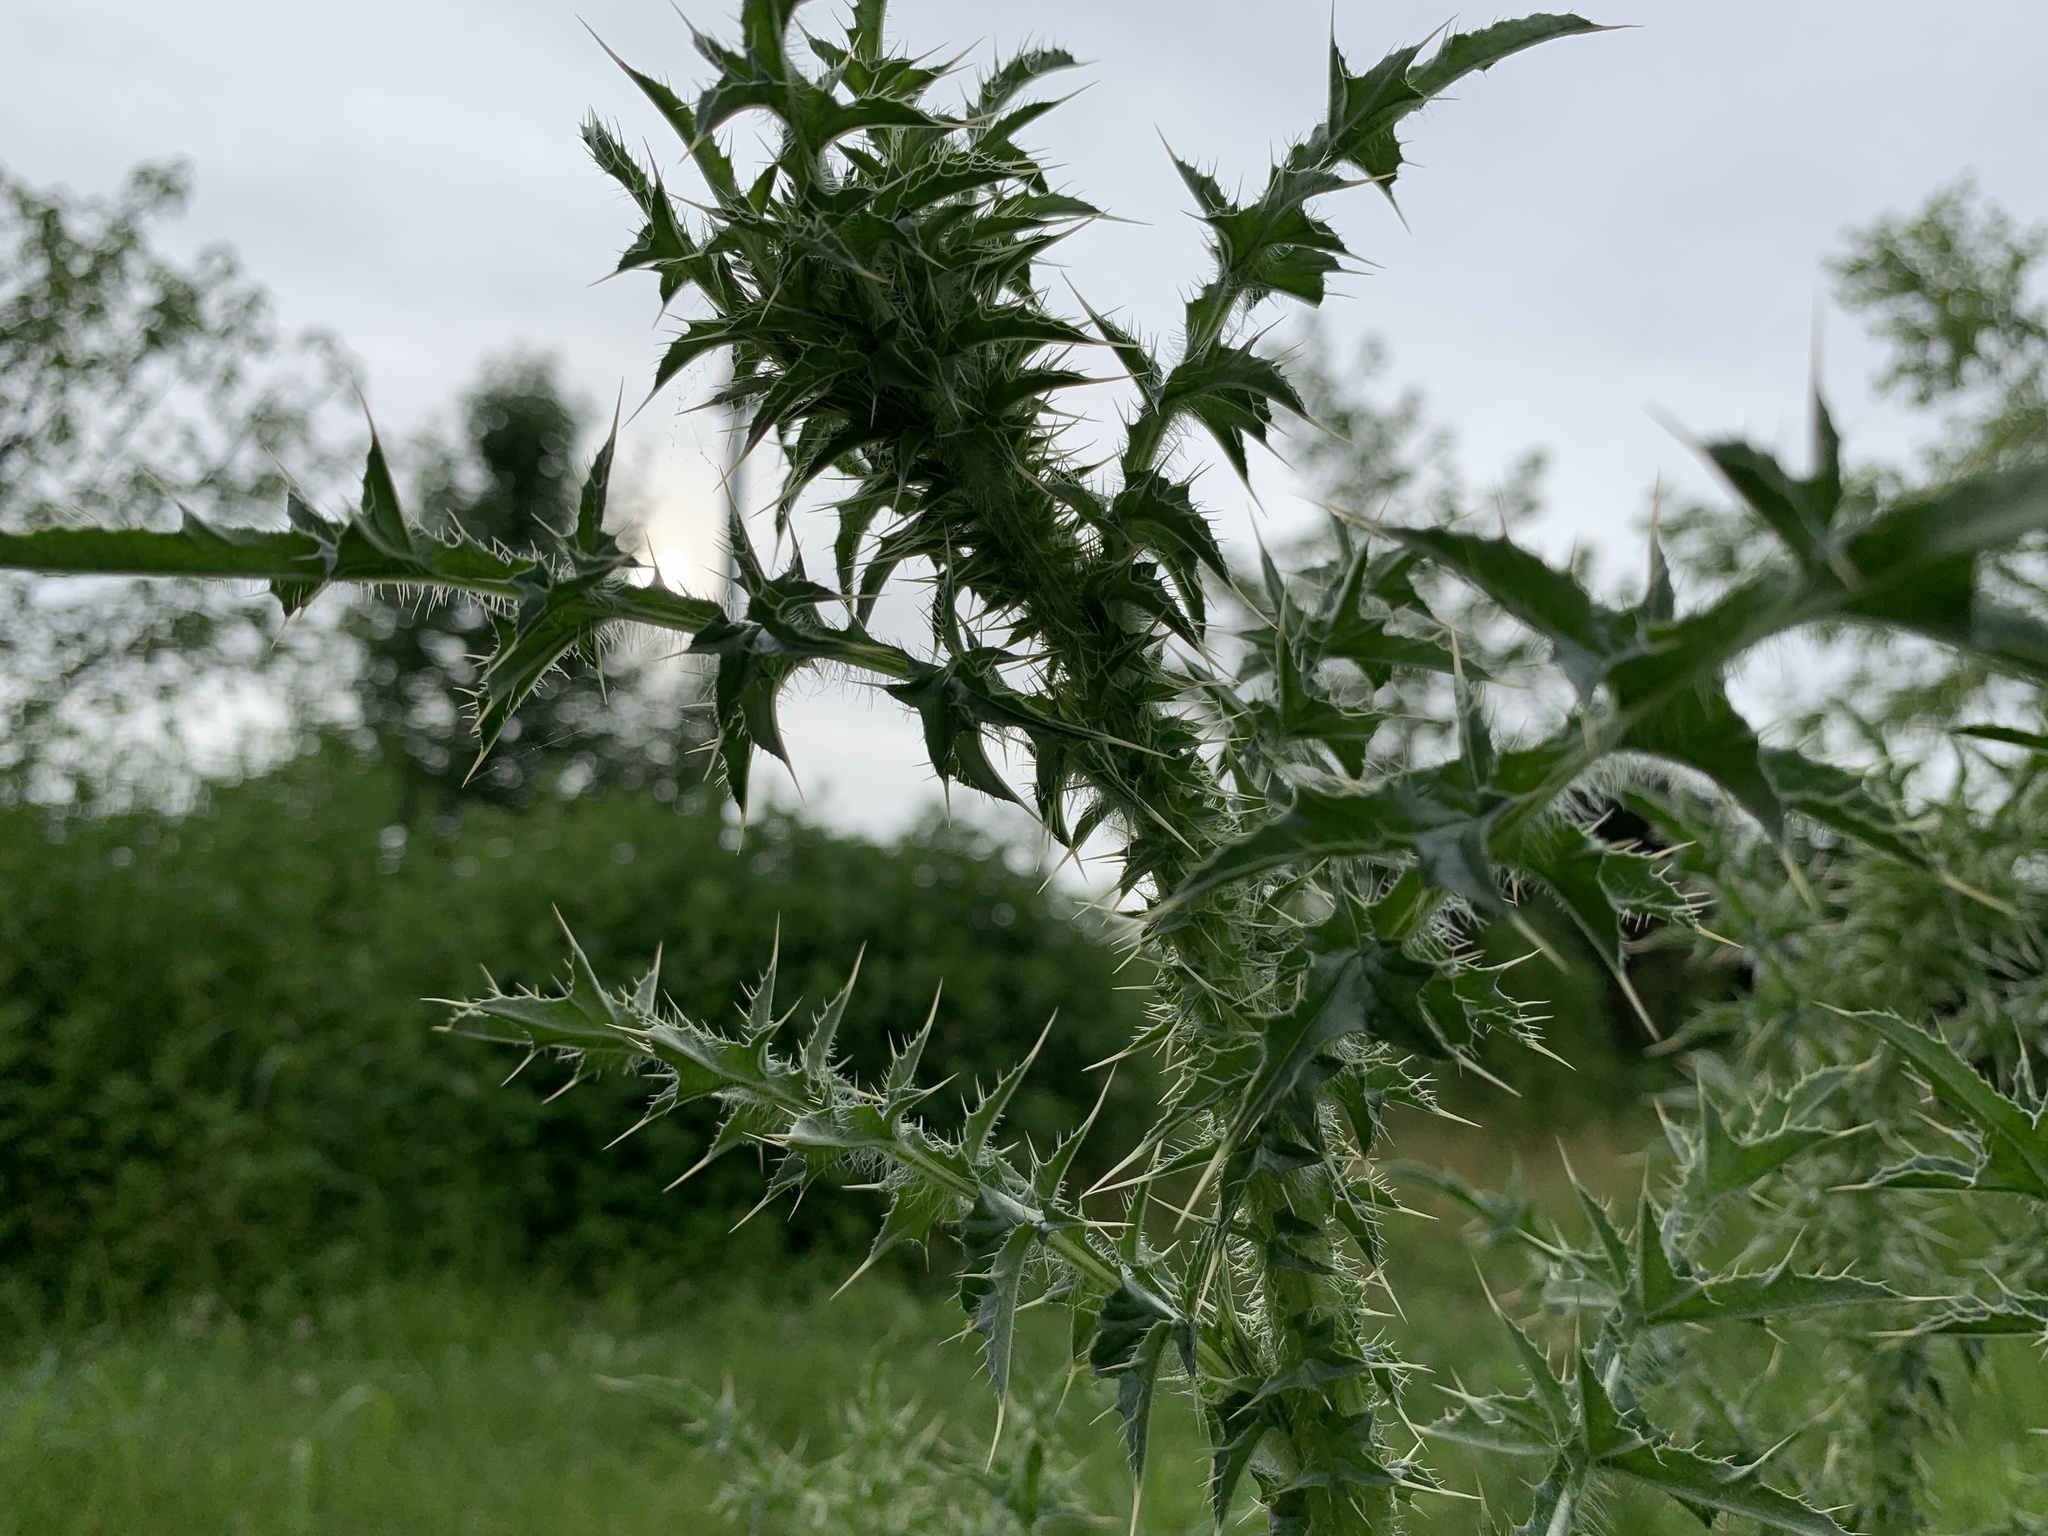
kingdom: Plantae
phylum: Tracheophyta
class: Magnoliopsida
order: Asterales
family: Asteraceae
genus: Carduus
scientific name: Carduus acanthoides
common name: Plumeless thistle
